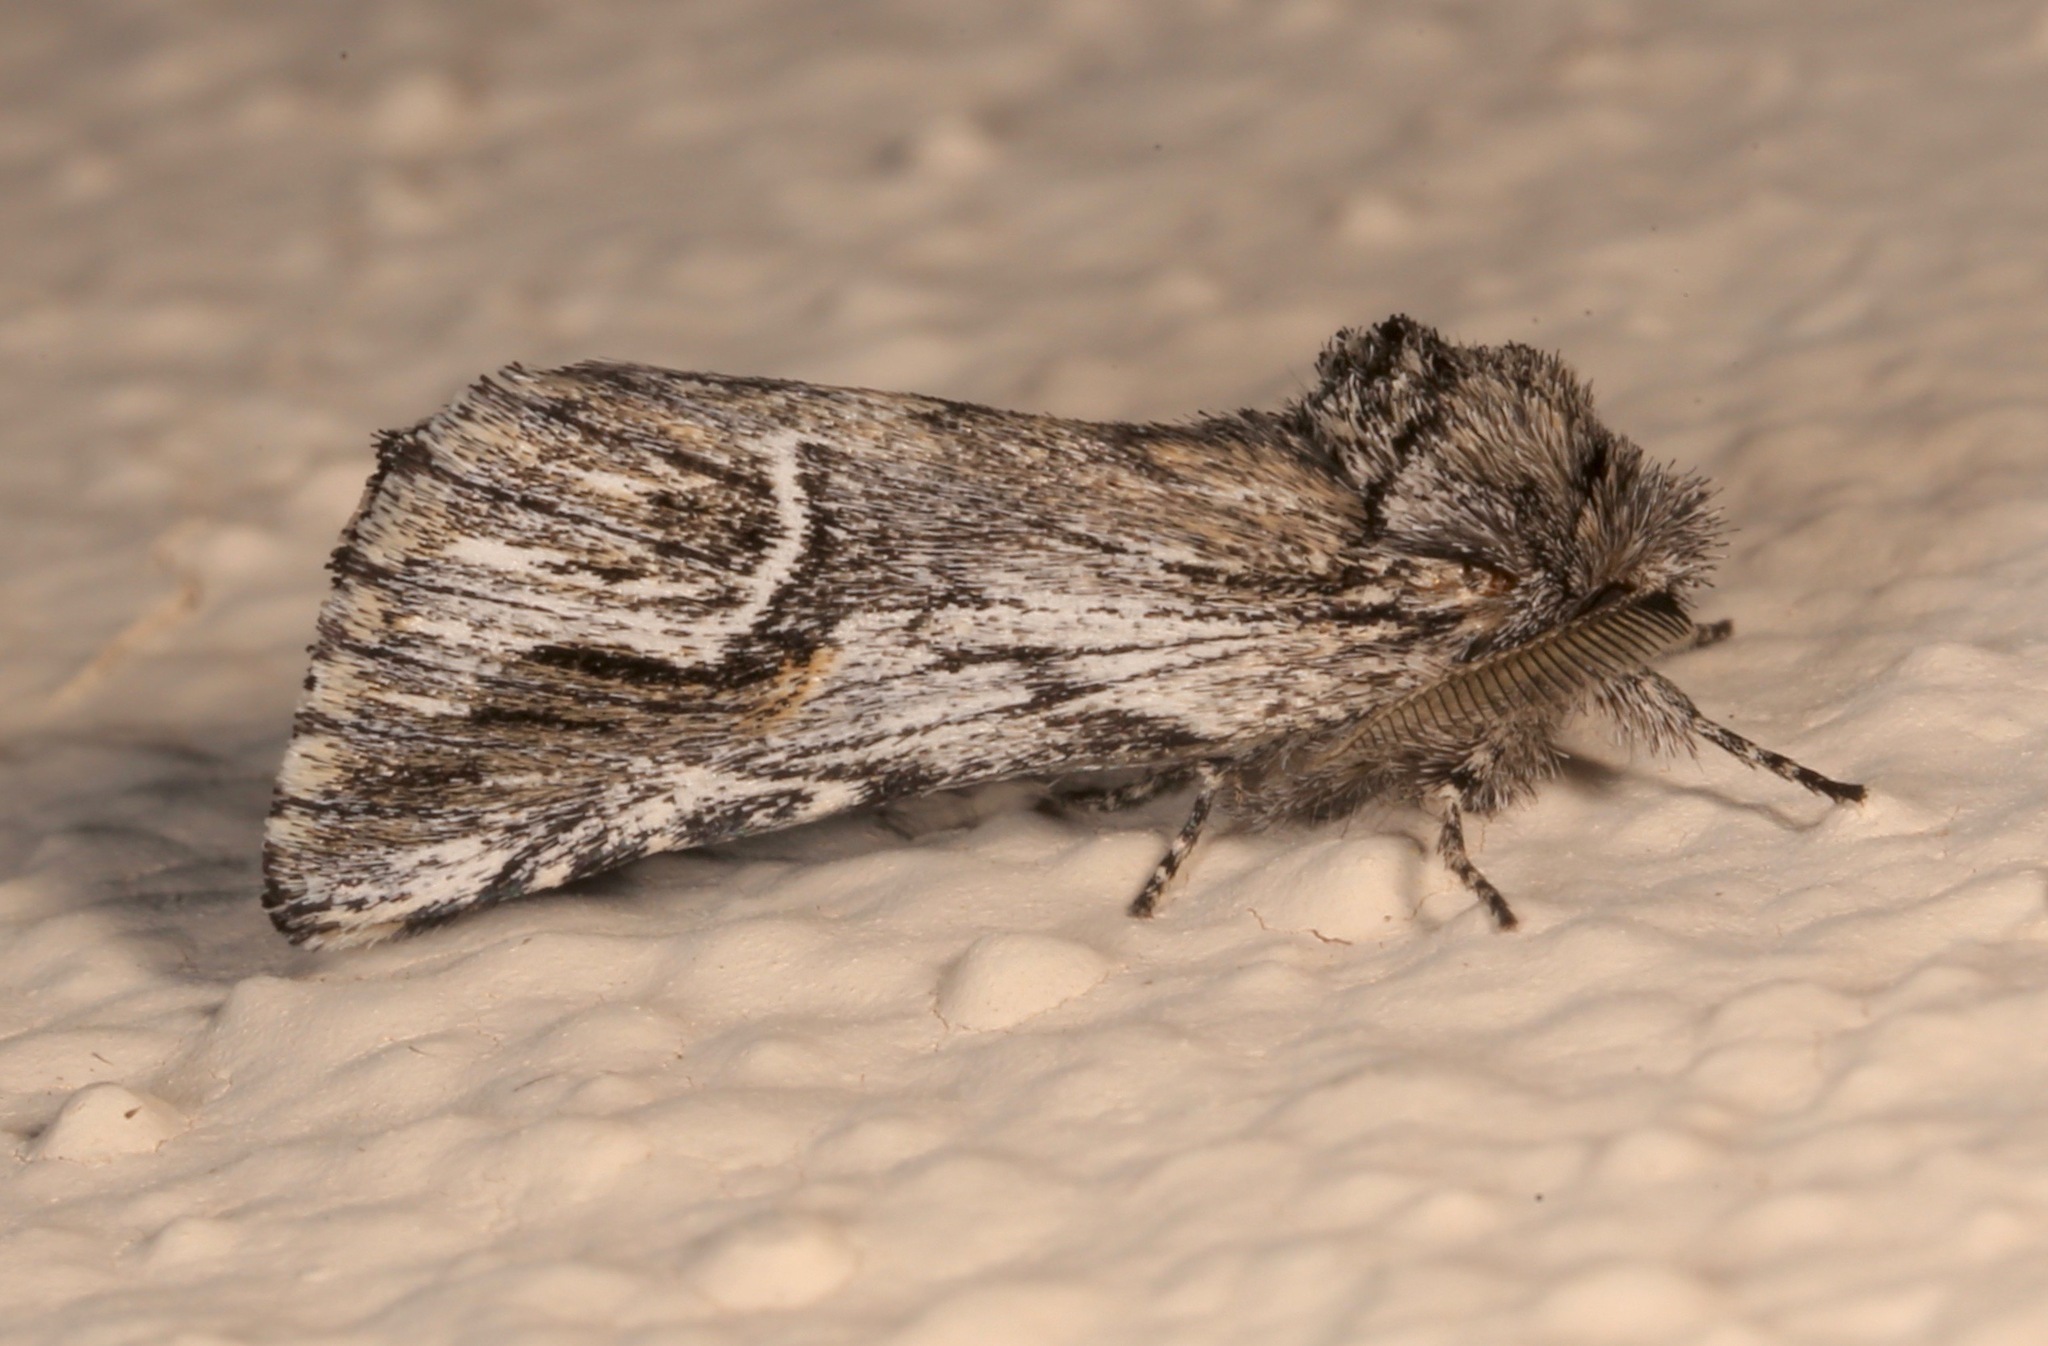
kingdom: Animalia
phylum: Arthropoda
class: Insecta
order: Lepidoptera
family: Notodontidae
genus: Ursia
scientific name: Ursia noctuiformis
